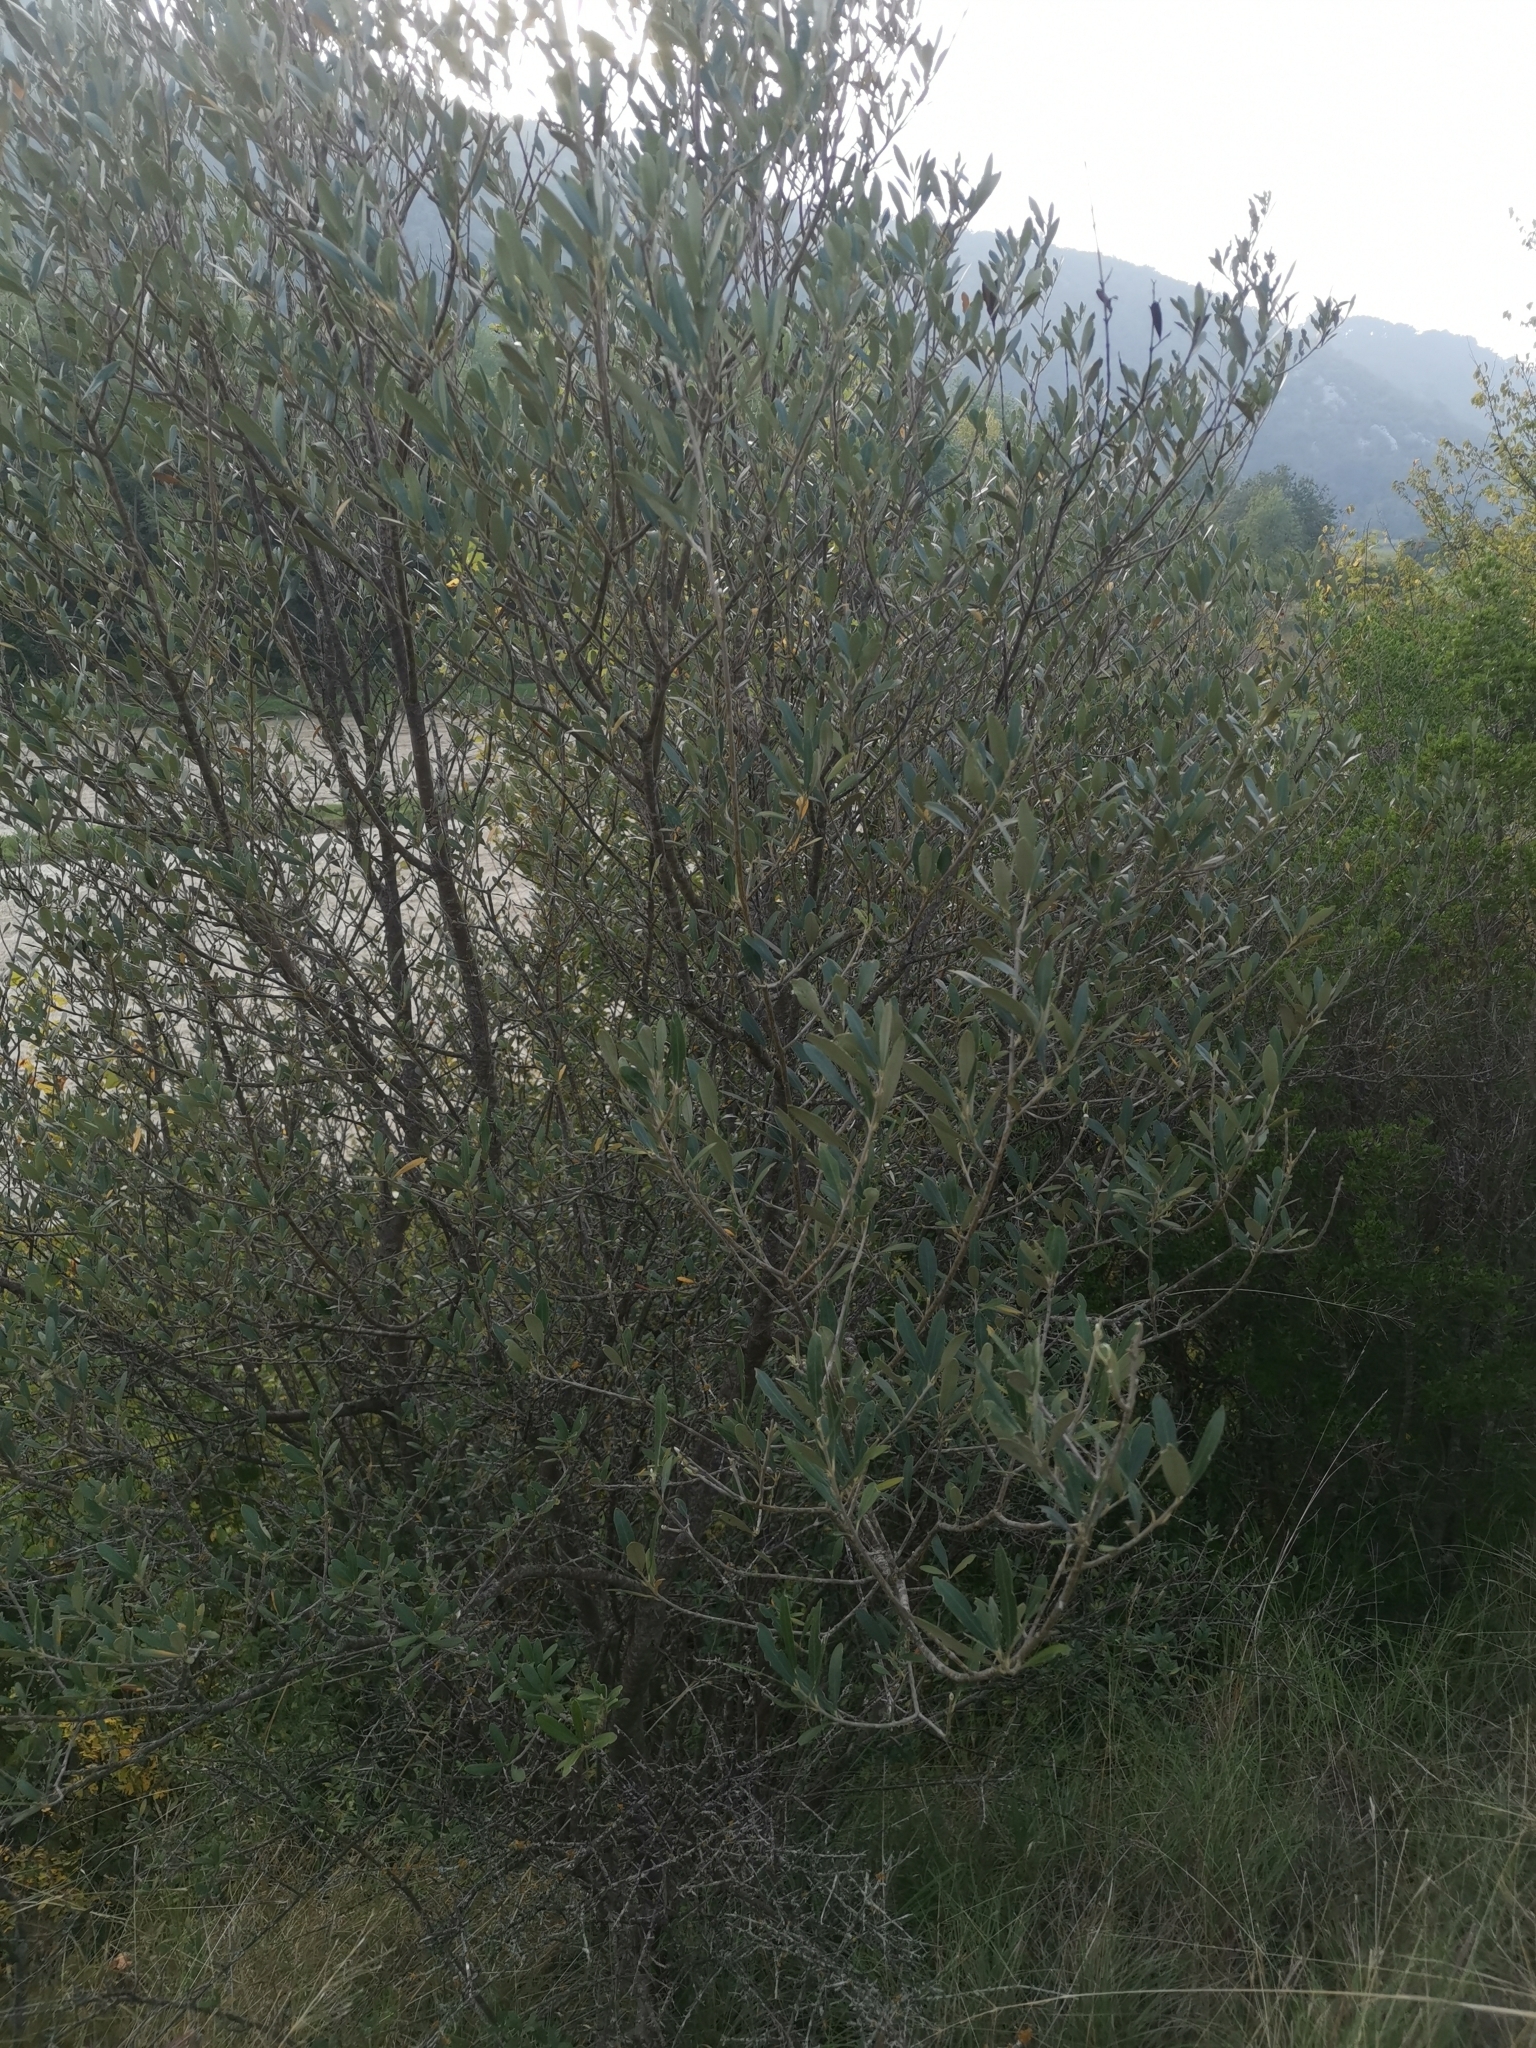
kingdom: Plantae
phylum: Tracheophyta
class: Magnoliopsida
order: Lamiales
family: Oleaceae
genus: Olea
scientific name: Olea europaea
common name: Olive
